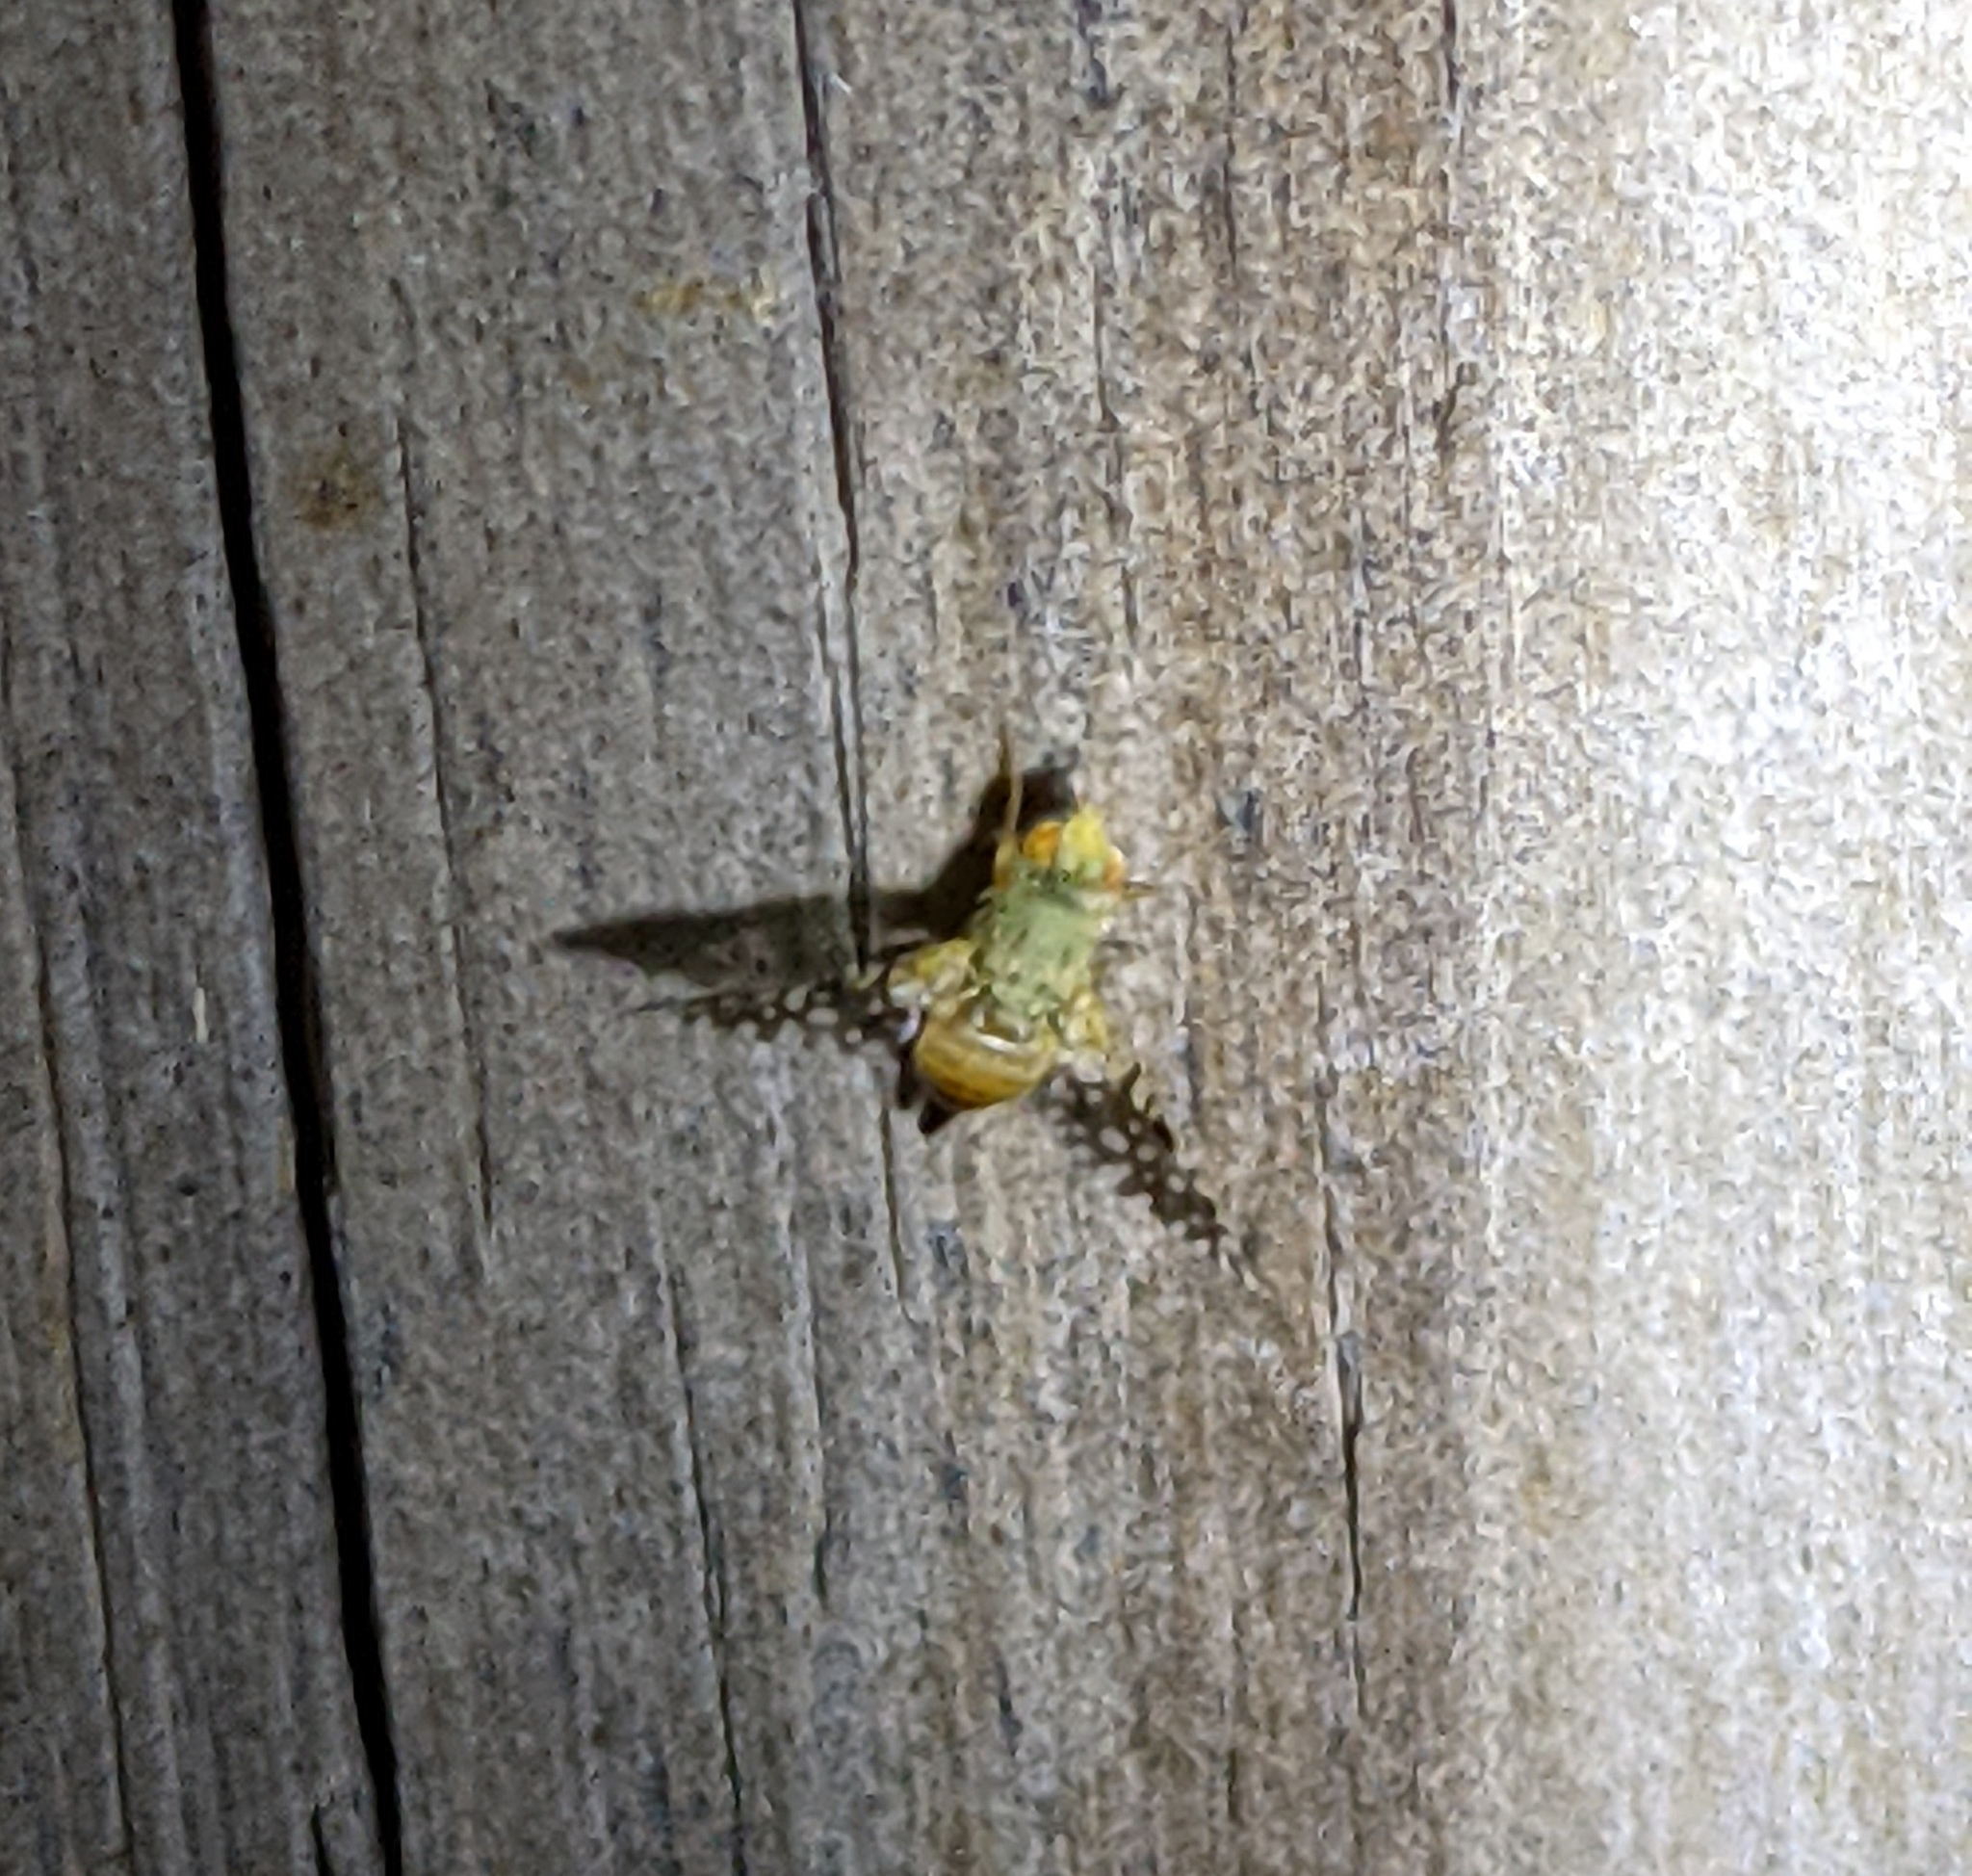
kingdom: Animalia
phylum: Arthropoda
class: Insecta
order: Diptera
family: Tephritidae
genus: Euaresta
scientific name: Euaresta bella
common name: Common ragweed fruit fly
